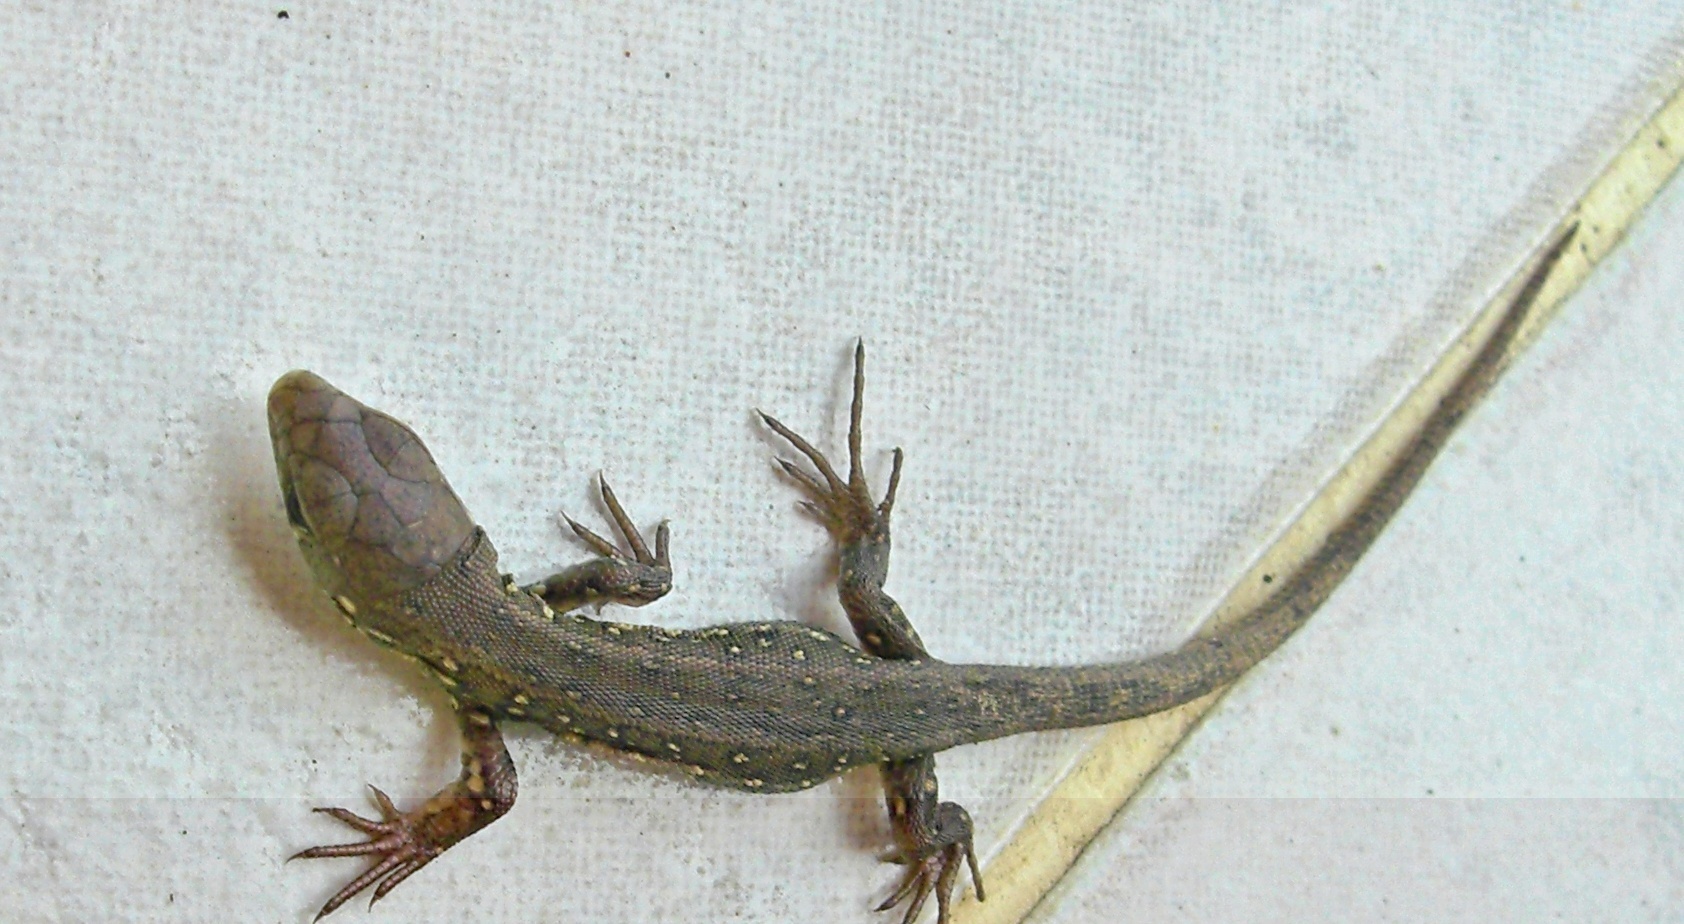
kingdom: Animalia
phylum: Chordata
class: Squamata
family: Lacertidae
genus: Lacerta
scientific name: Lacerta agilis
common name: Sand lizard
